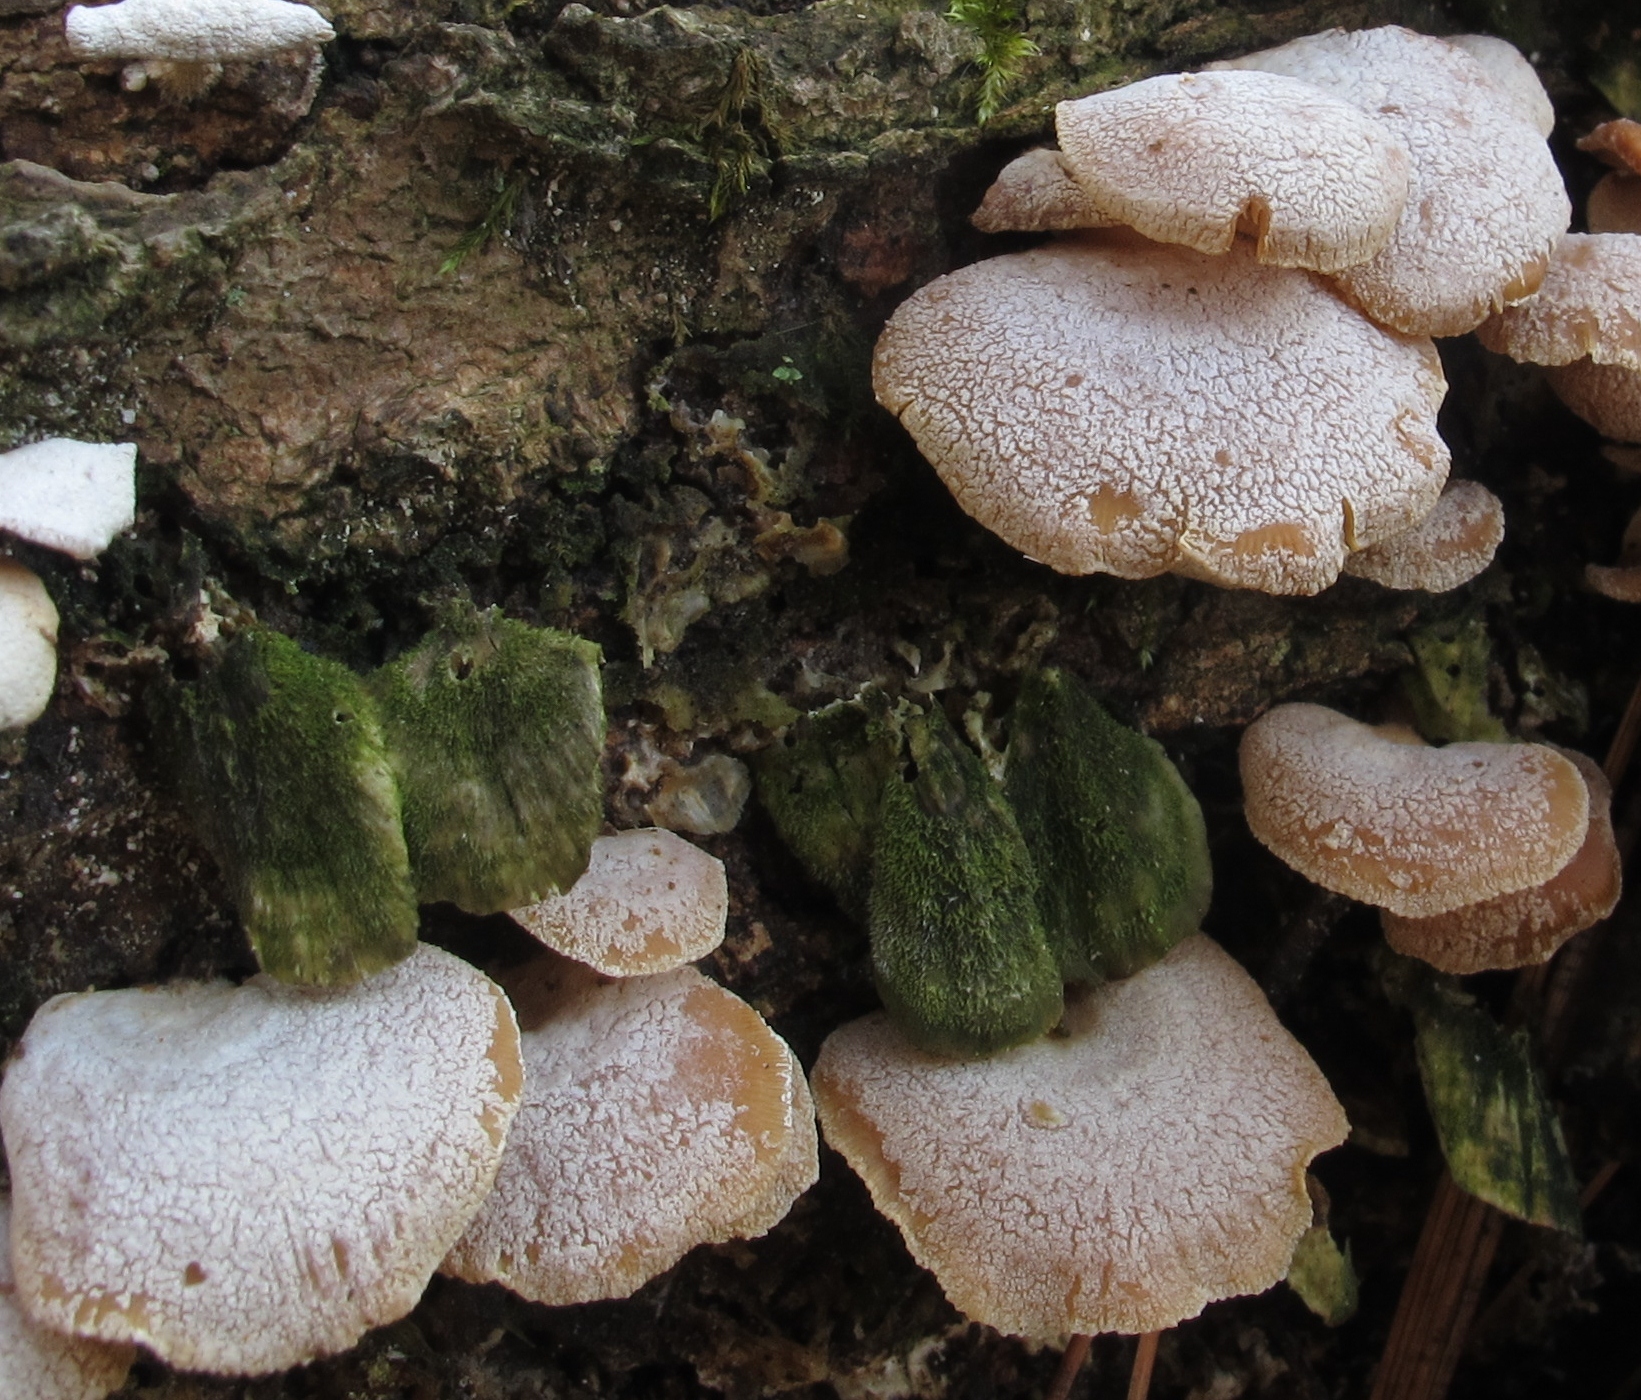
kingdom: Fungi
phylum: Basidiomycota
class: Agaricomycetes
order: Agaricales
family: Mycenaceae
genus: Panellus
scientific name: Panellus stipticus
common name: Bitter oysterling
